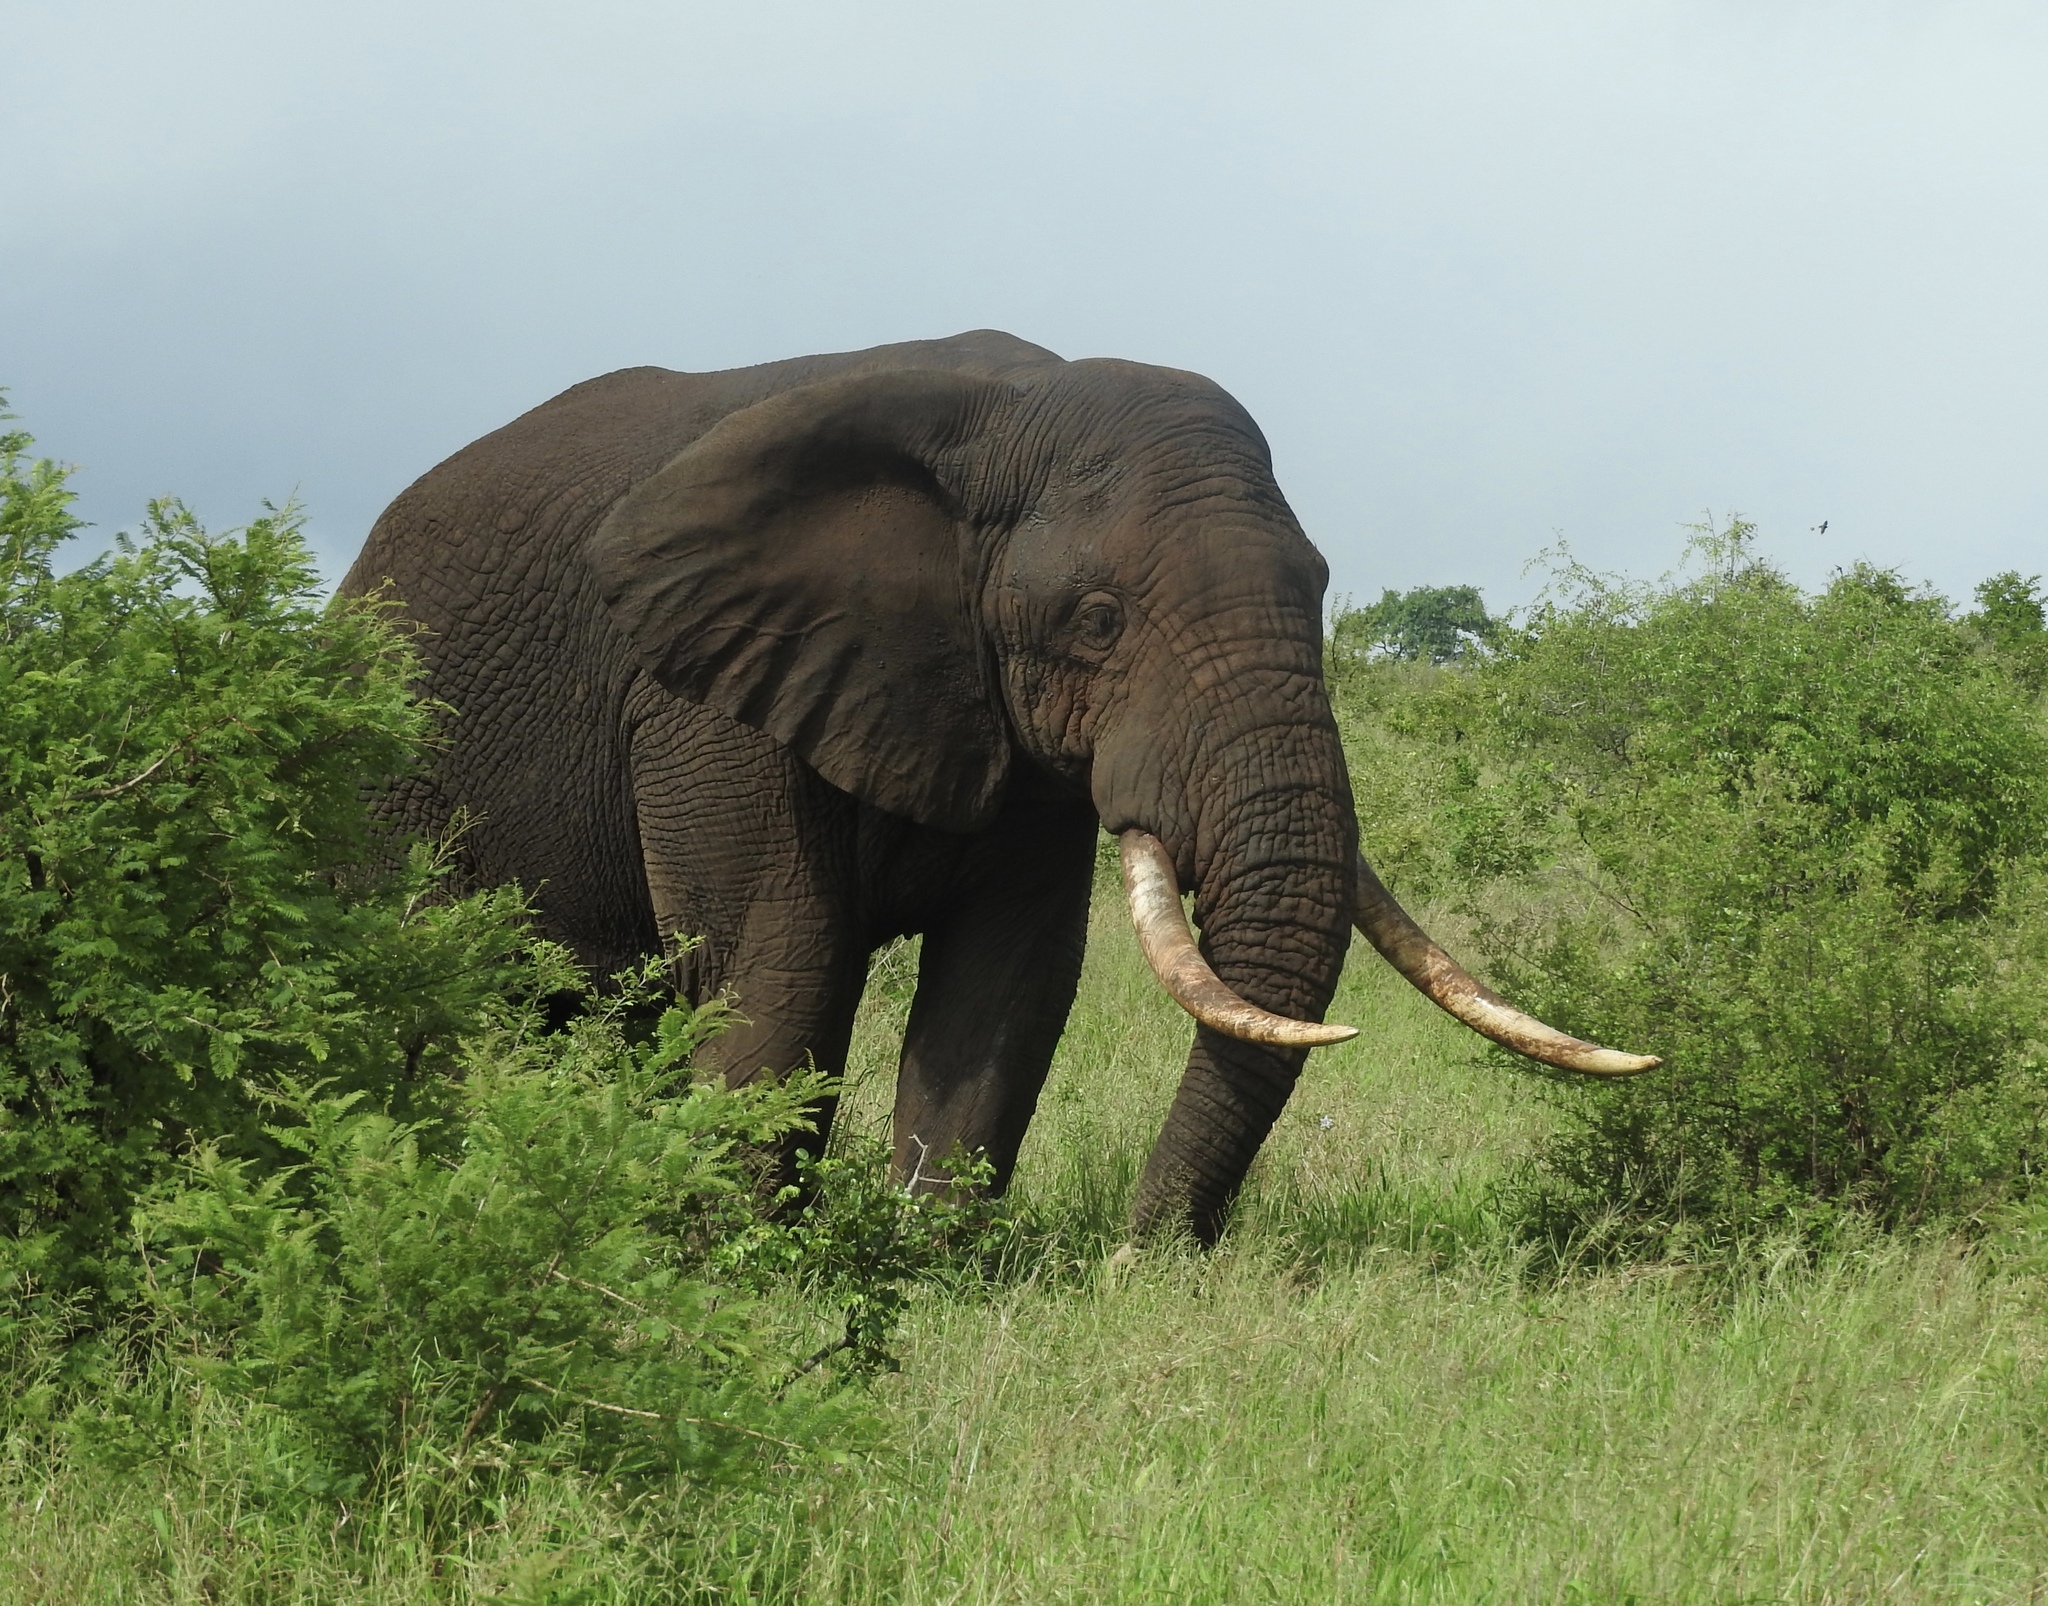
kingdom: Animalia
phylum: Chordata
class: Mammalia
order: Proboscidea
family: Elephantidae
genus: Loxodonta
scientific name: Loxodonta africana
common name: African elephant
